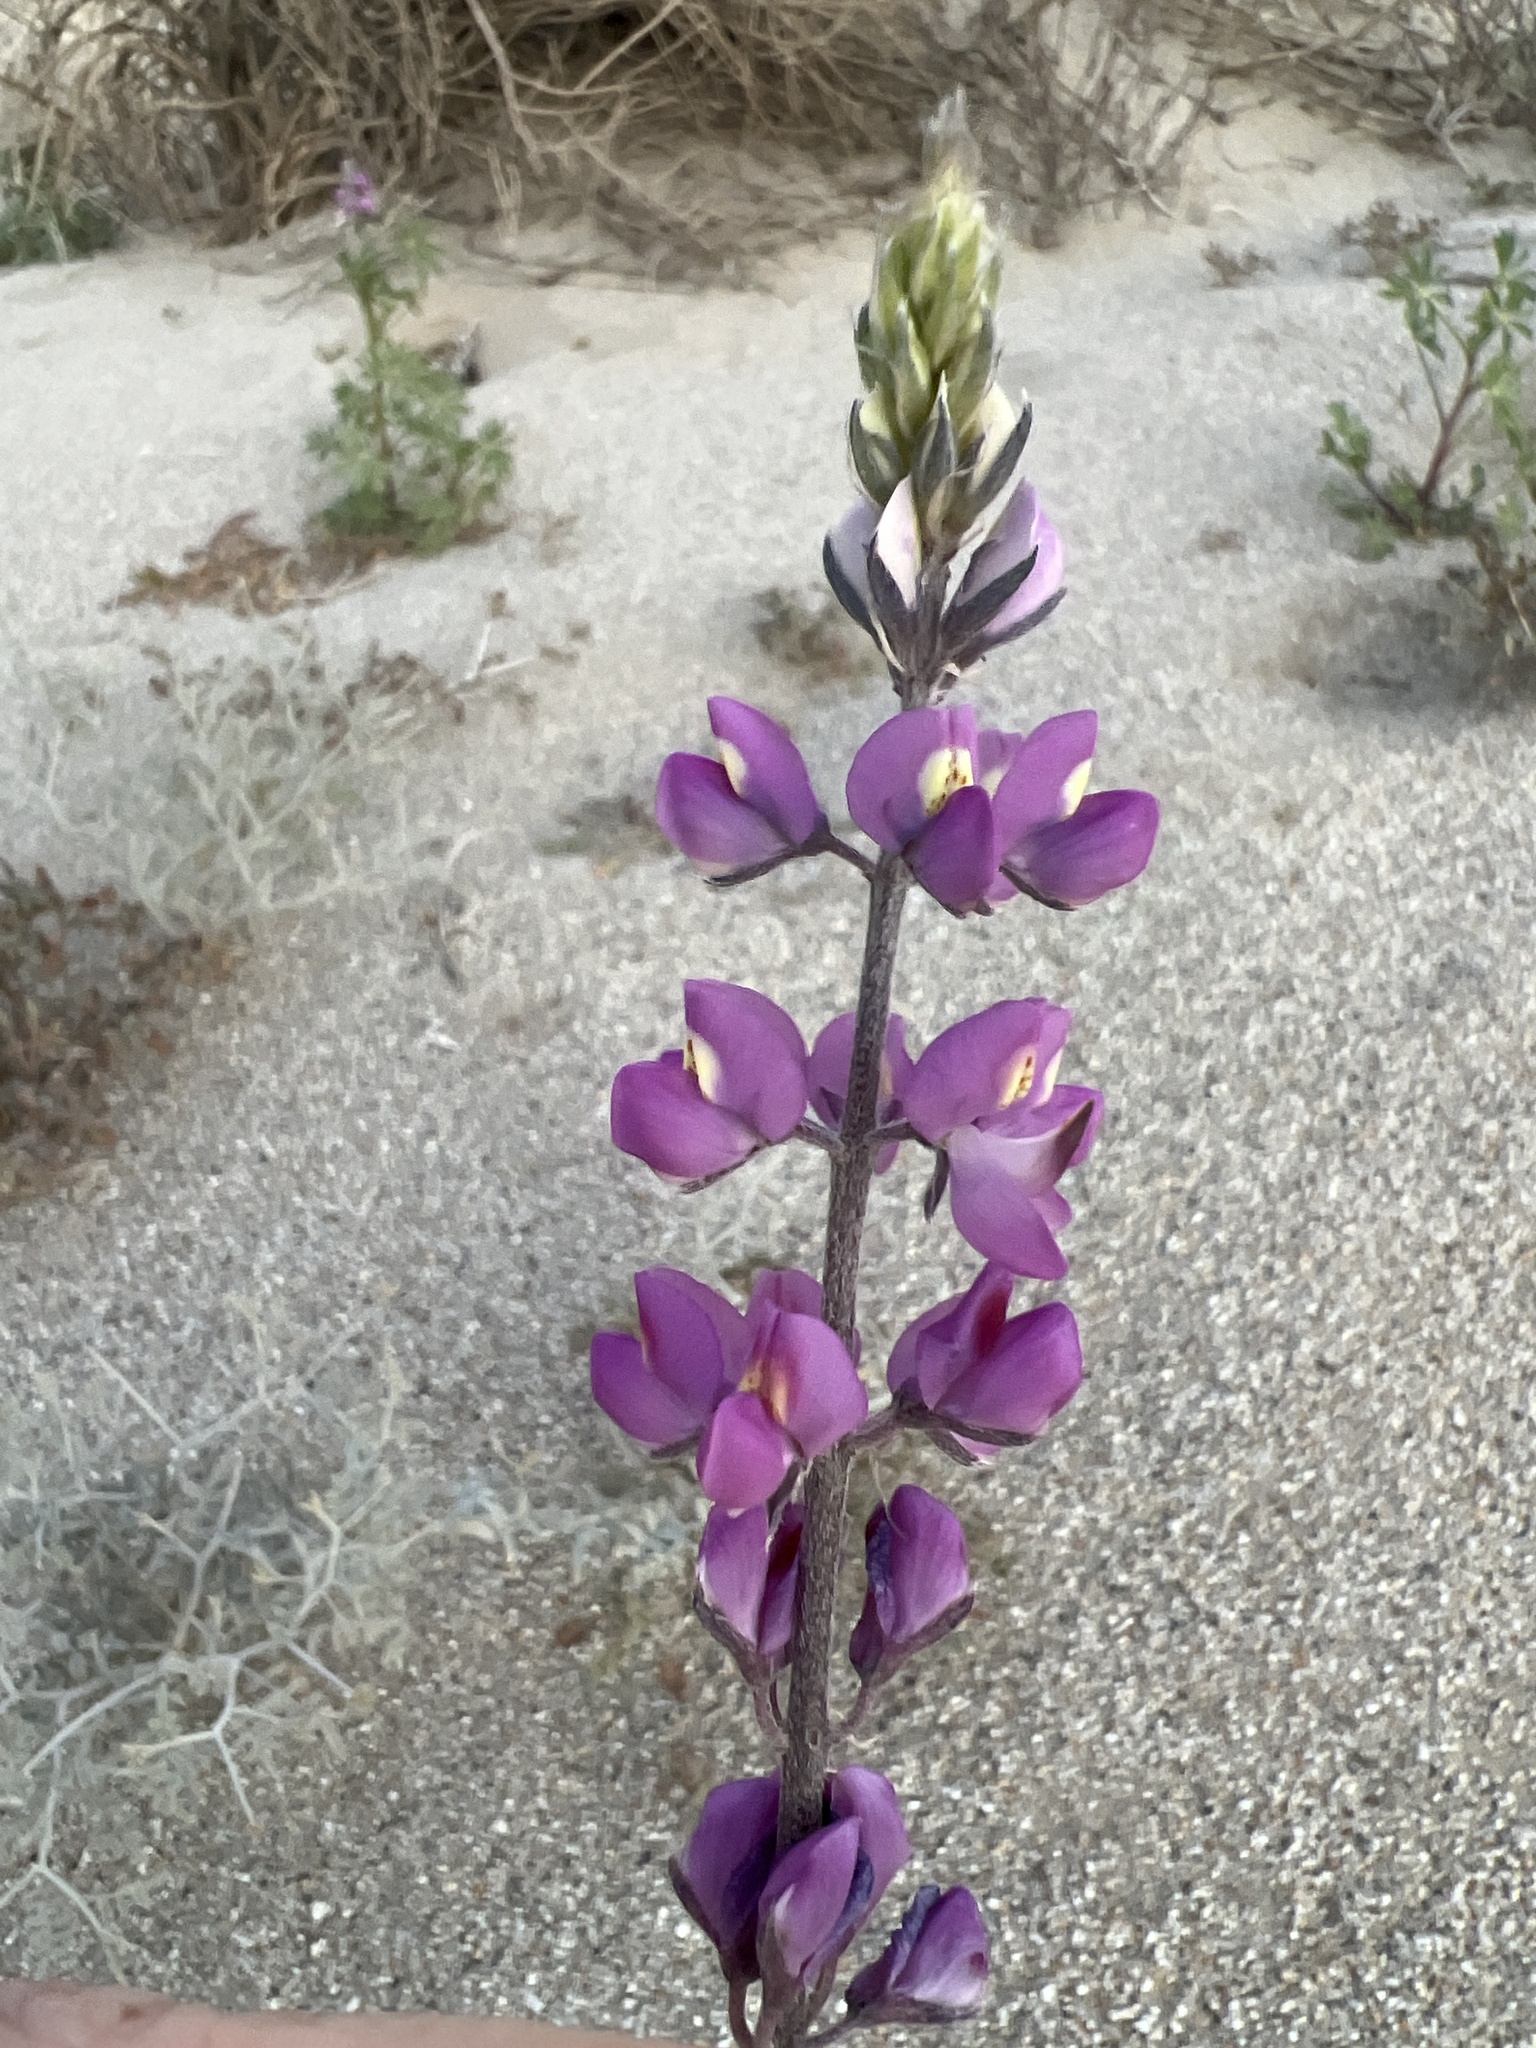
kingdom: Plantae
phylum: Tracheophyta
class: Magnoliopsida
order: Fabales
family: Fabaceae
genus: Lupinus
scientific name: Lupinus arizonicus
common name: Arizona lupine
